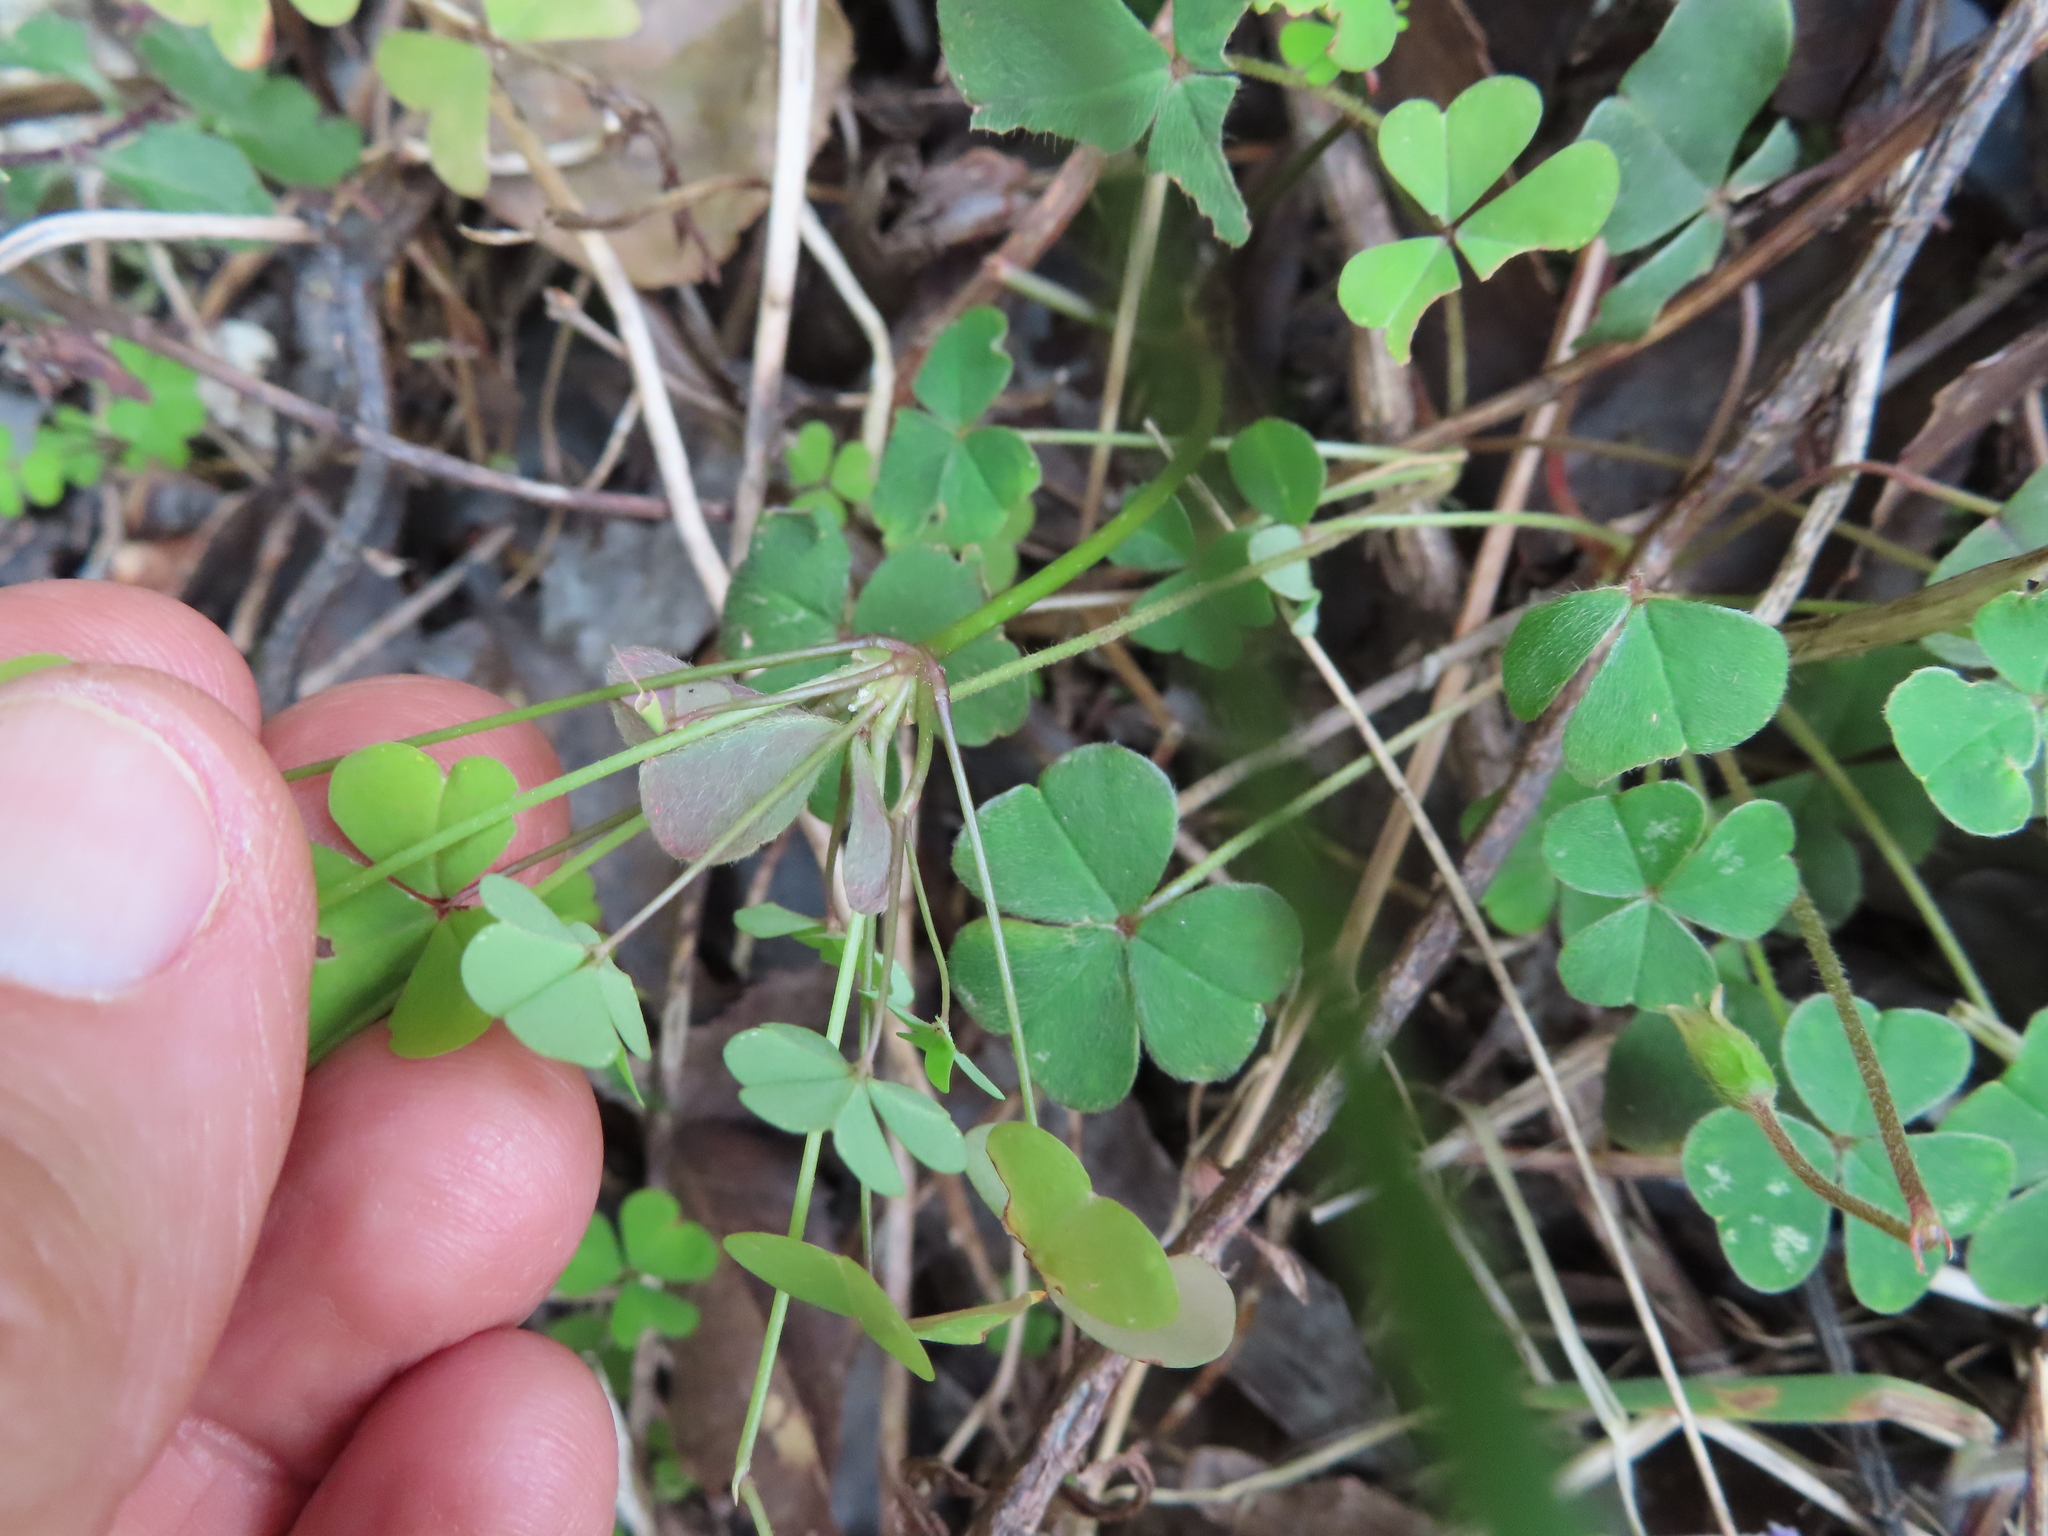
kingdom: Plantae
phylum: Tracheophyta
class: Magnoliopsida
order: Oxalidales
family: Oxalidaceae
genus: Oxalis
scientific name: Oxalis incarnata
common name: Pale pink-sorrel
